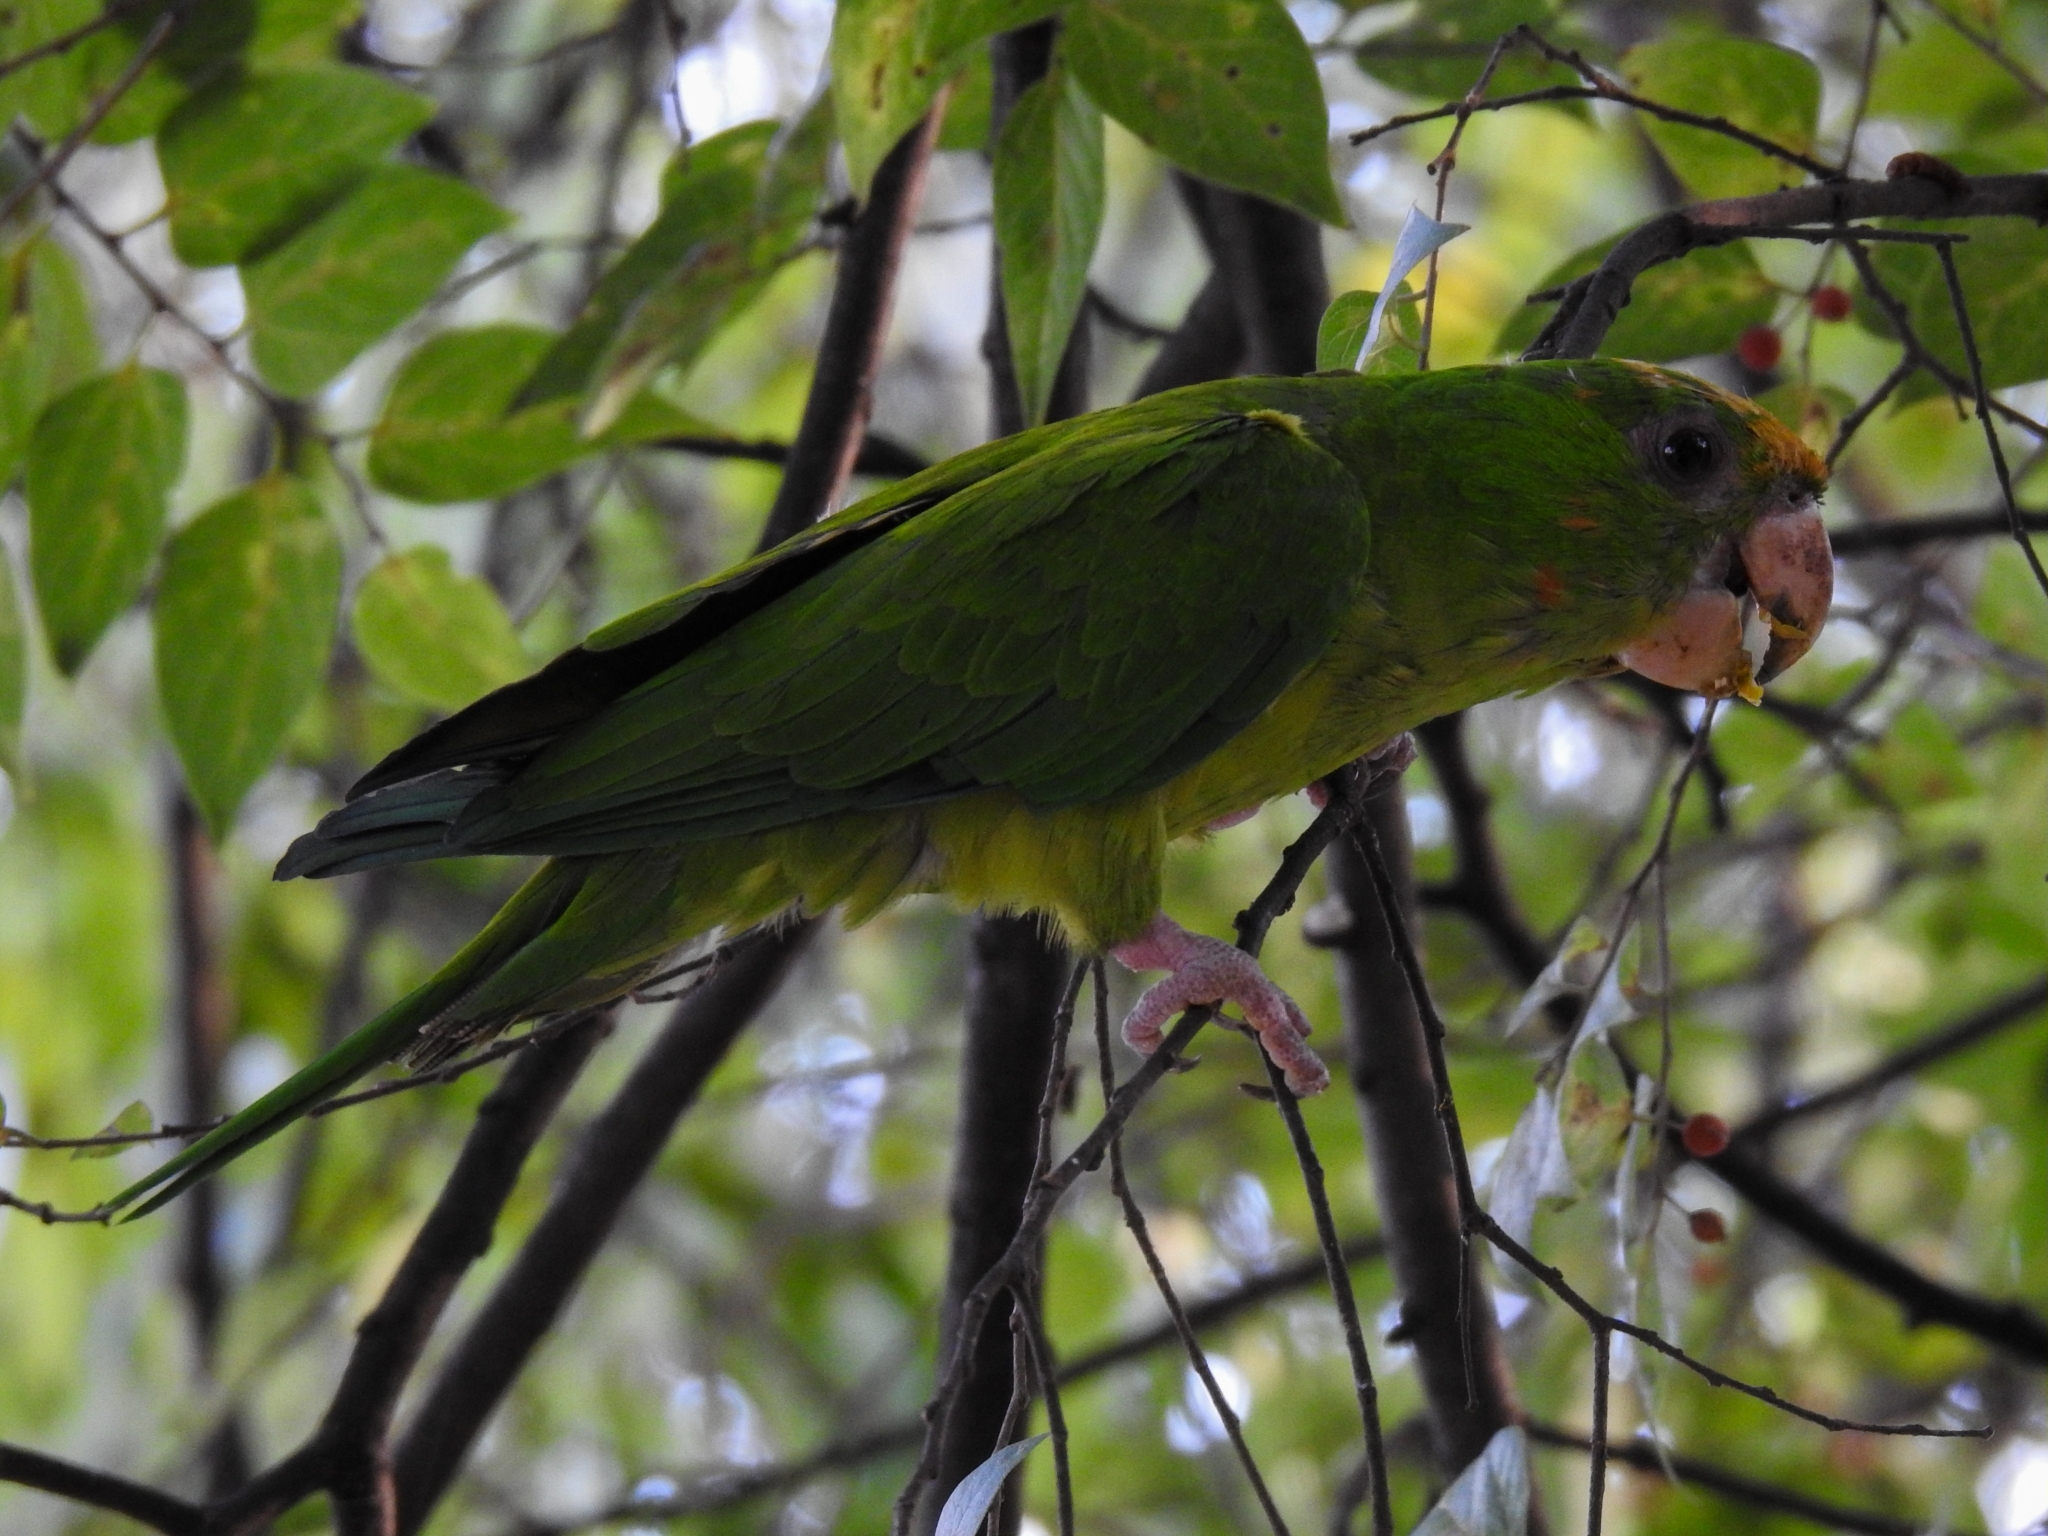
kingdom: Animalia
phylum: Chordata
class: Aves
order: Psittaciformes
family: Psittacidae
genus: Aratinga
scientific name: Aratinga holochlora
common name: Green parakeet
